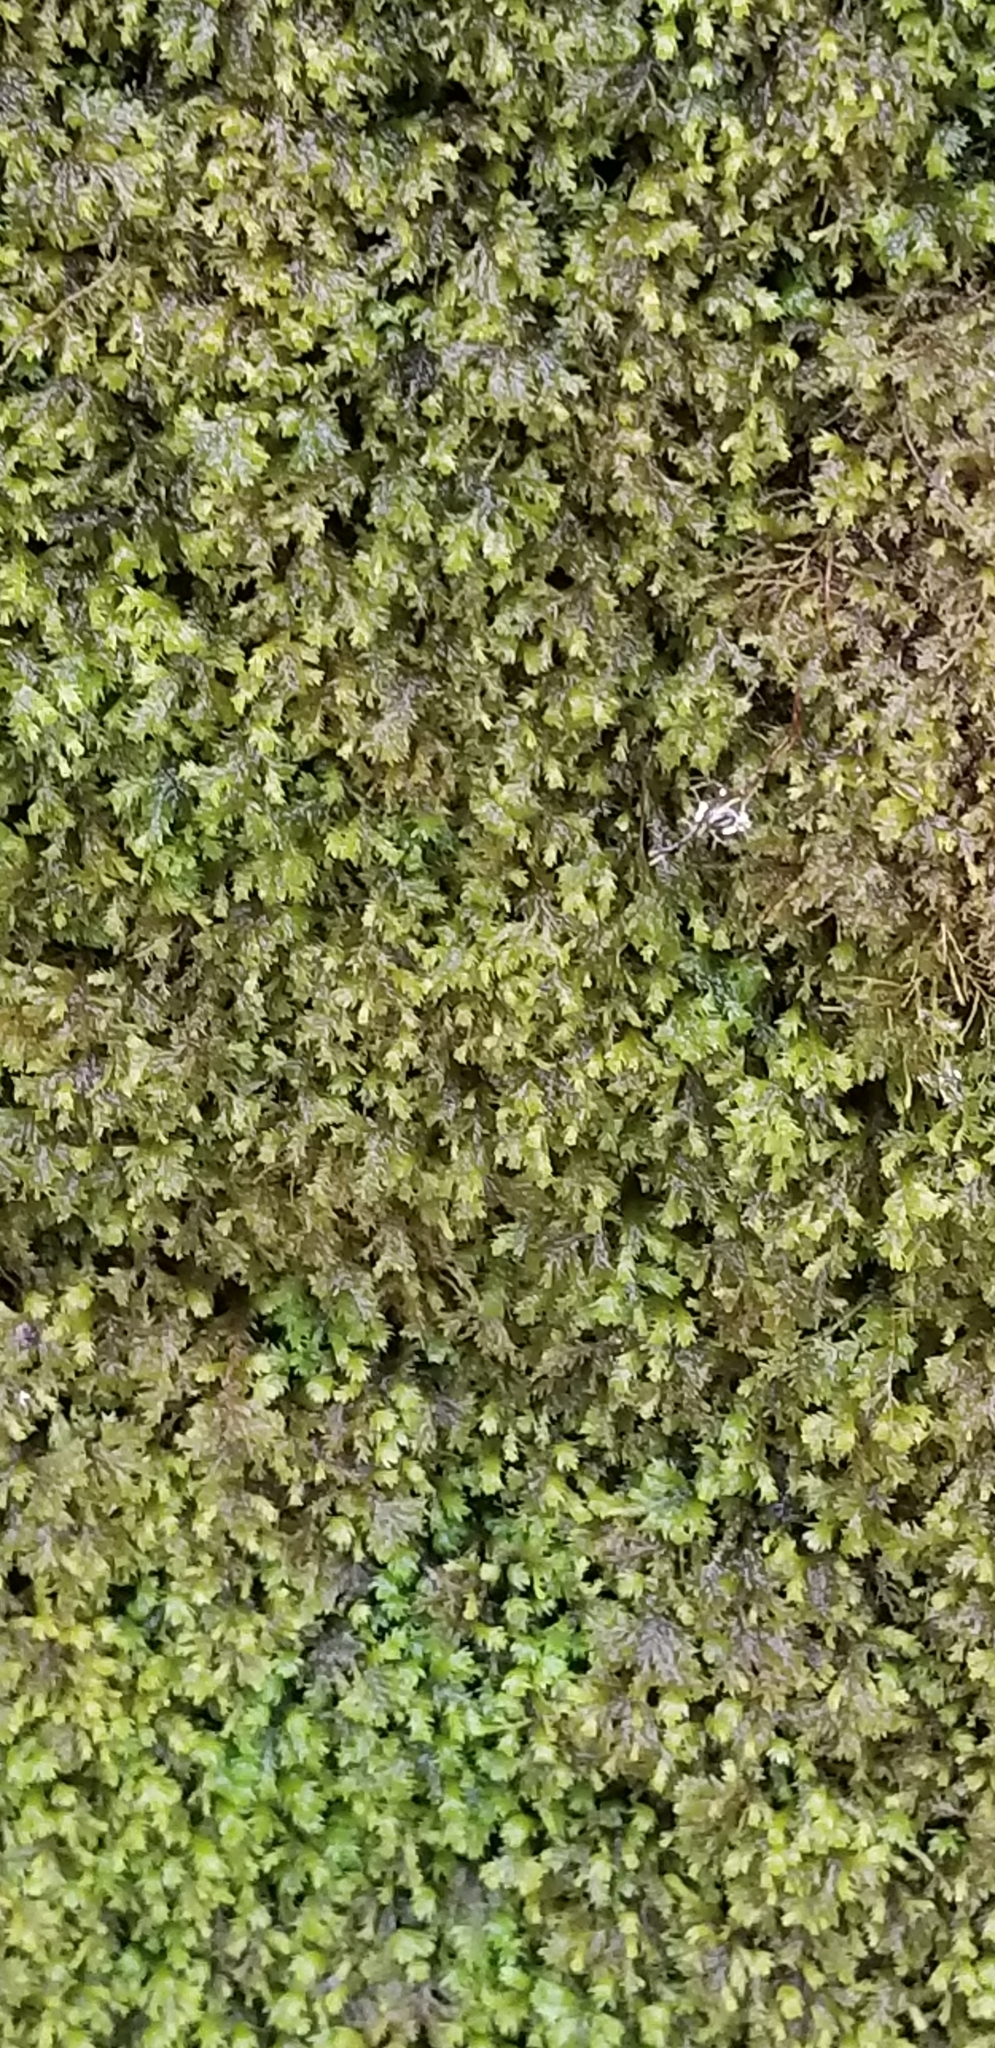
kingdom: Plantae
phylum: Bryophyta
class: Bryopsida
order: Hypnales
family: Neckeraceae
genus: Pseudanomodon
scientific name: Pseudanomodon attenuatus
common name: Tree-skirt moss
